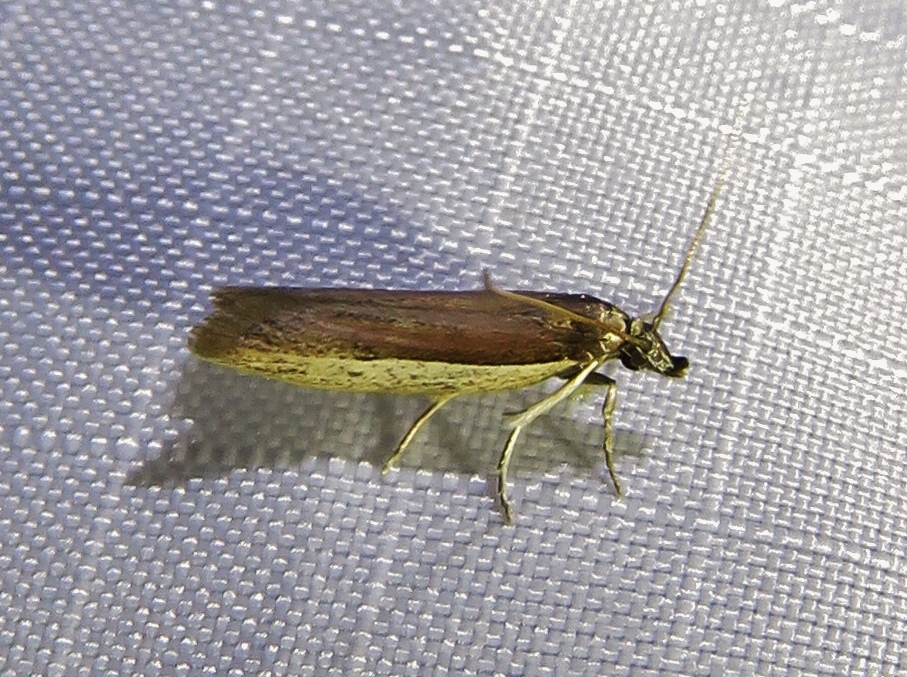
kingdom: Animalia
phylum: Arthropoda
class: Insecta
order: Lepidoptera
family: Pyralidae
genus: Tampa
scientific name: Tampa dimediatella
